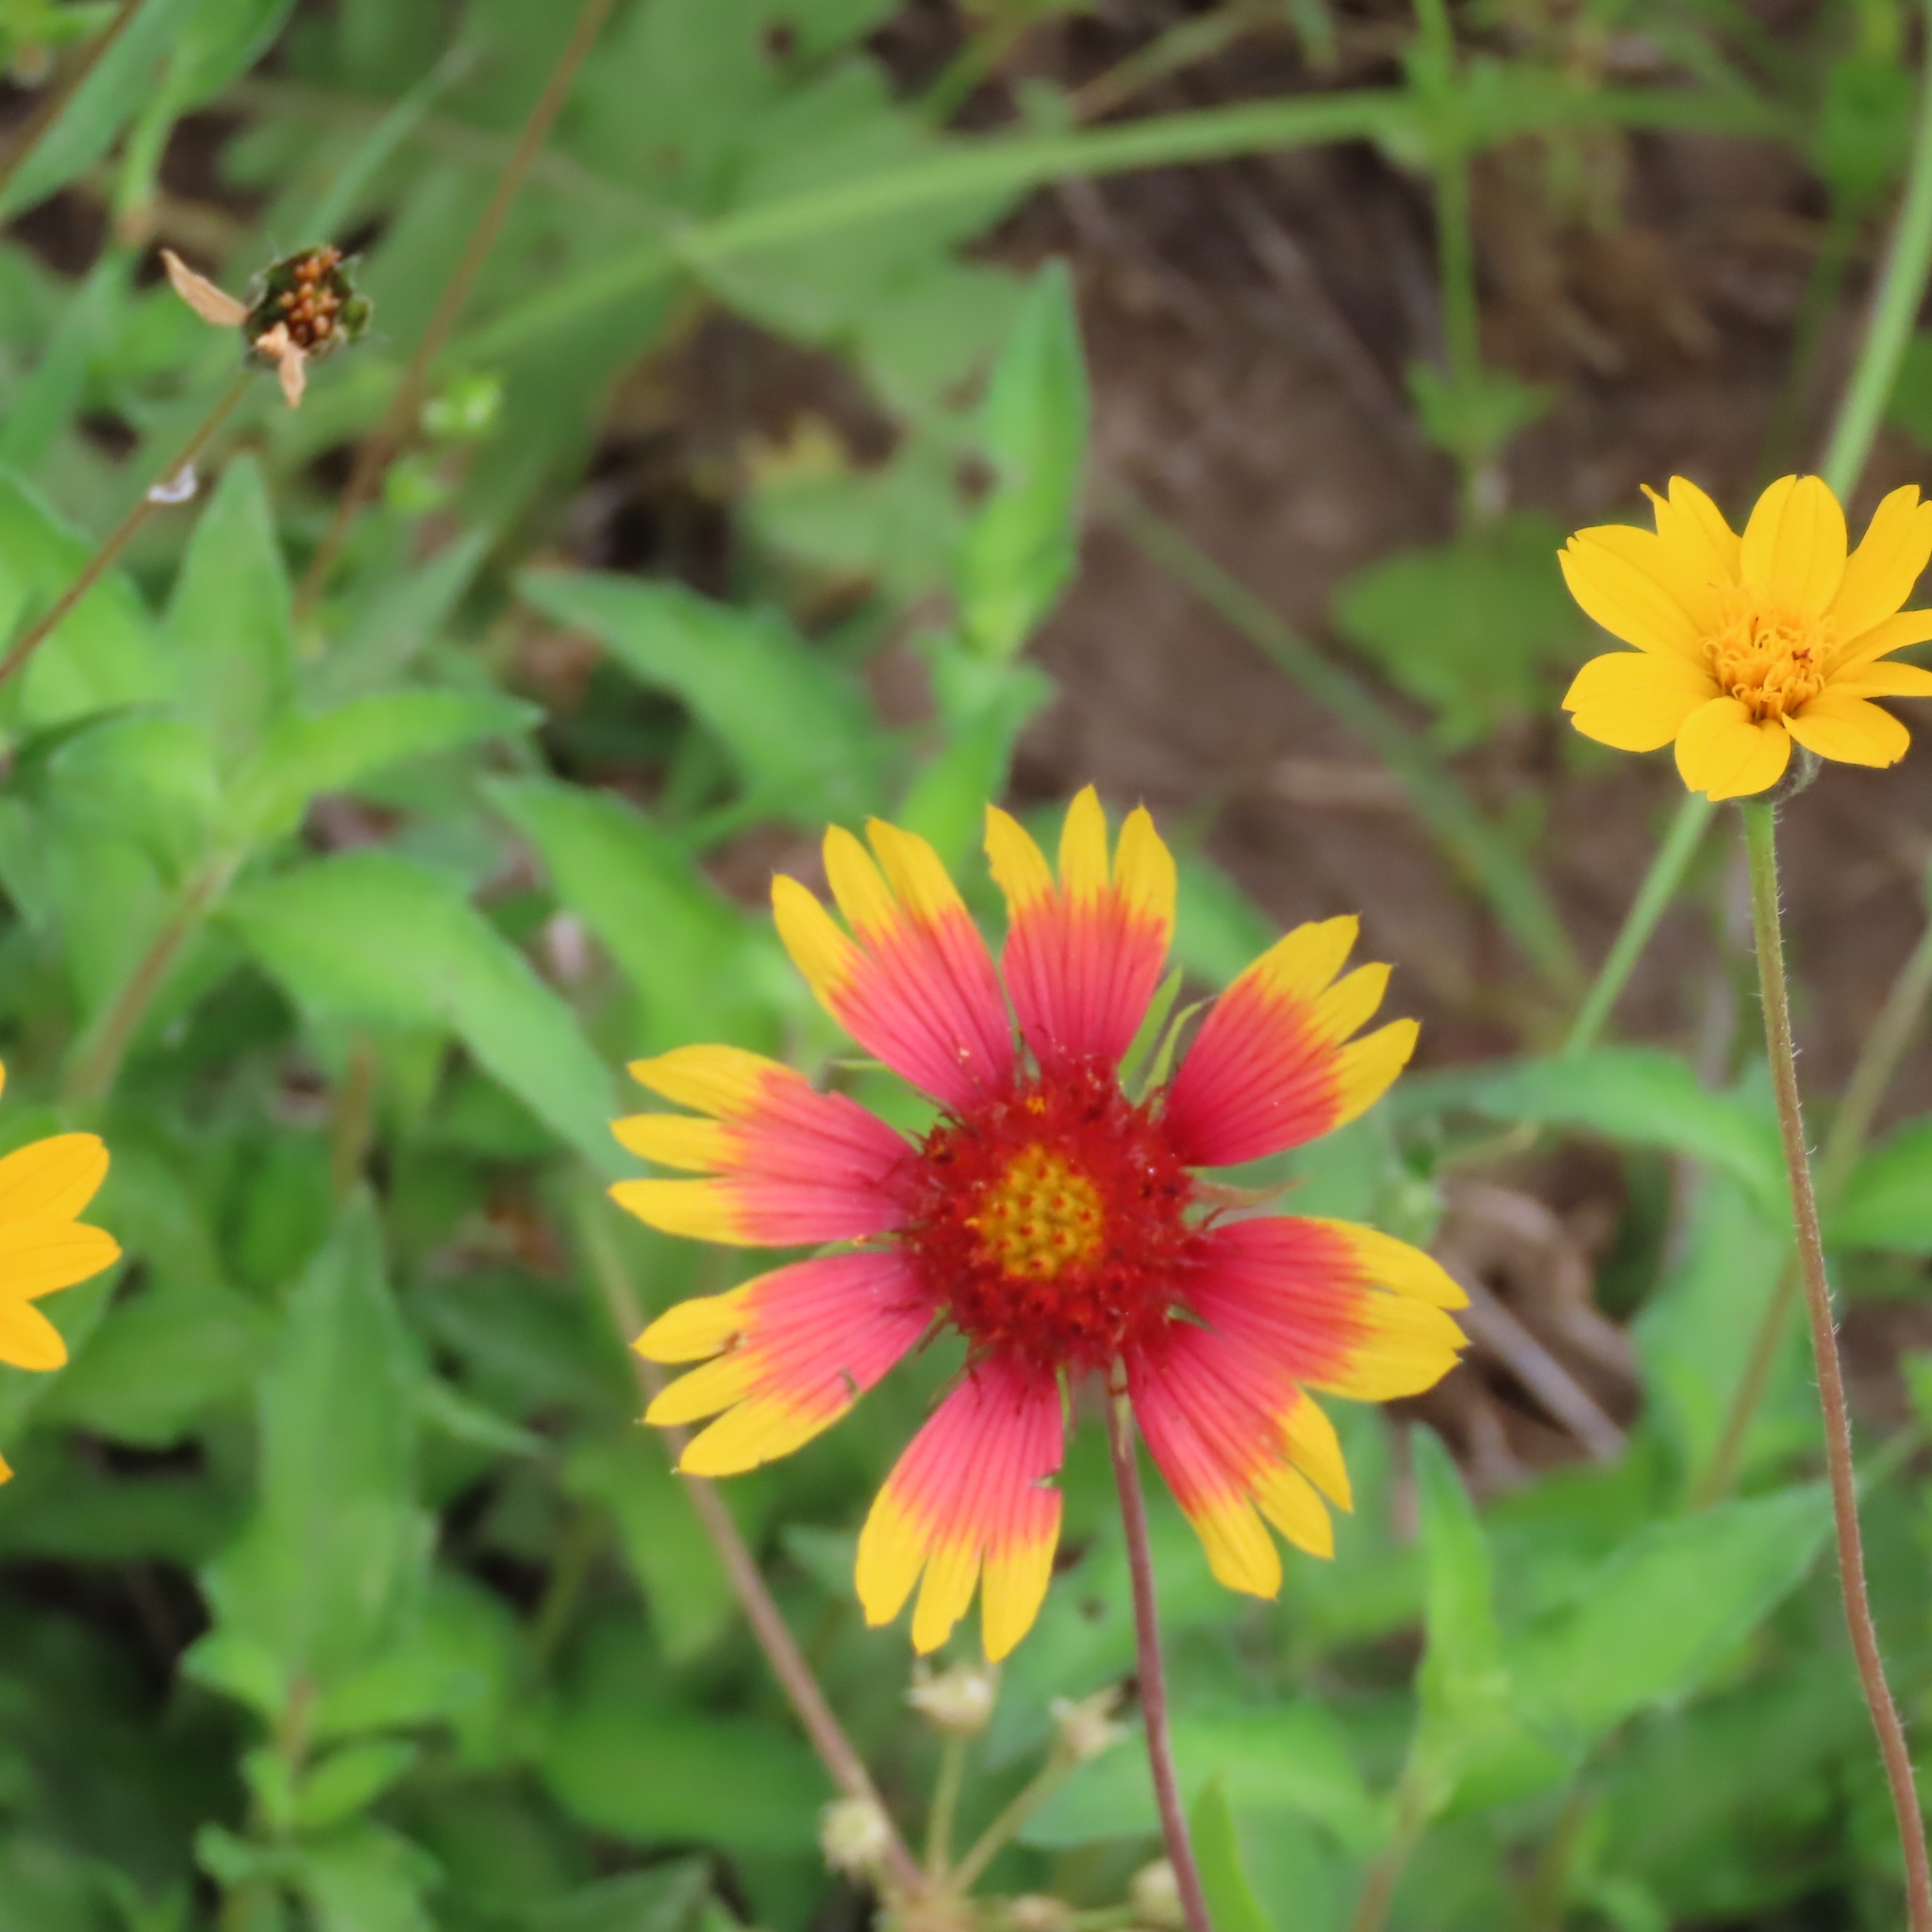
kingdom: Plantae
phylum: Tracheophyta
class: Magnoliopsida
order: Asterales
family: Asteraceae
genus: Gaillardia
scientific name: Gaillardia pulchella
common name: Firewheel
